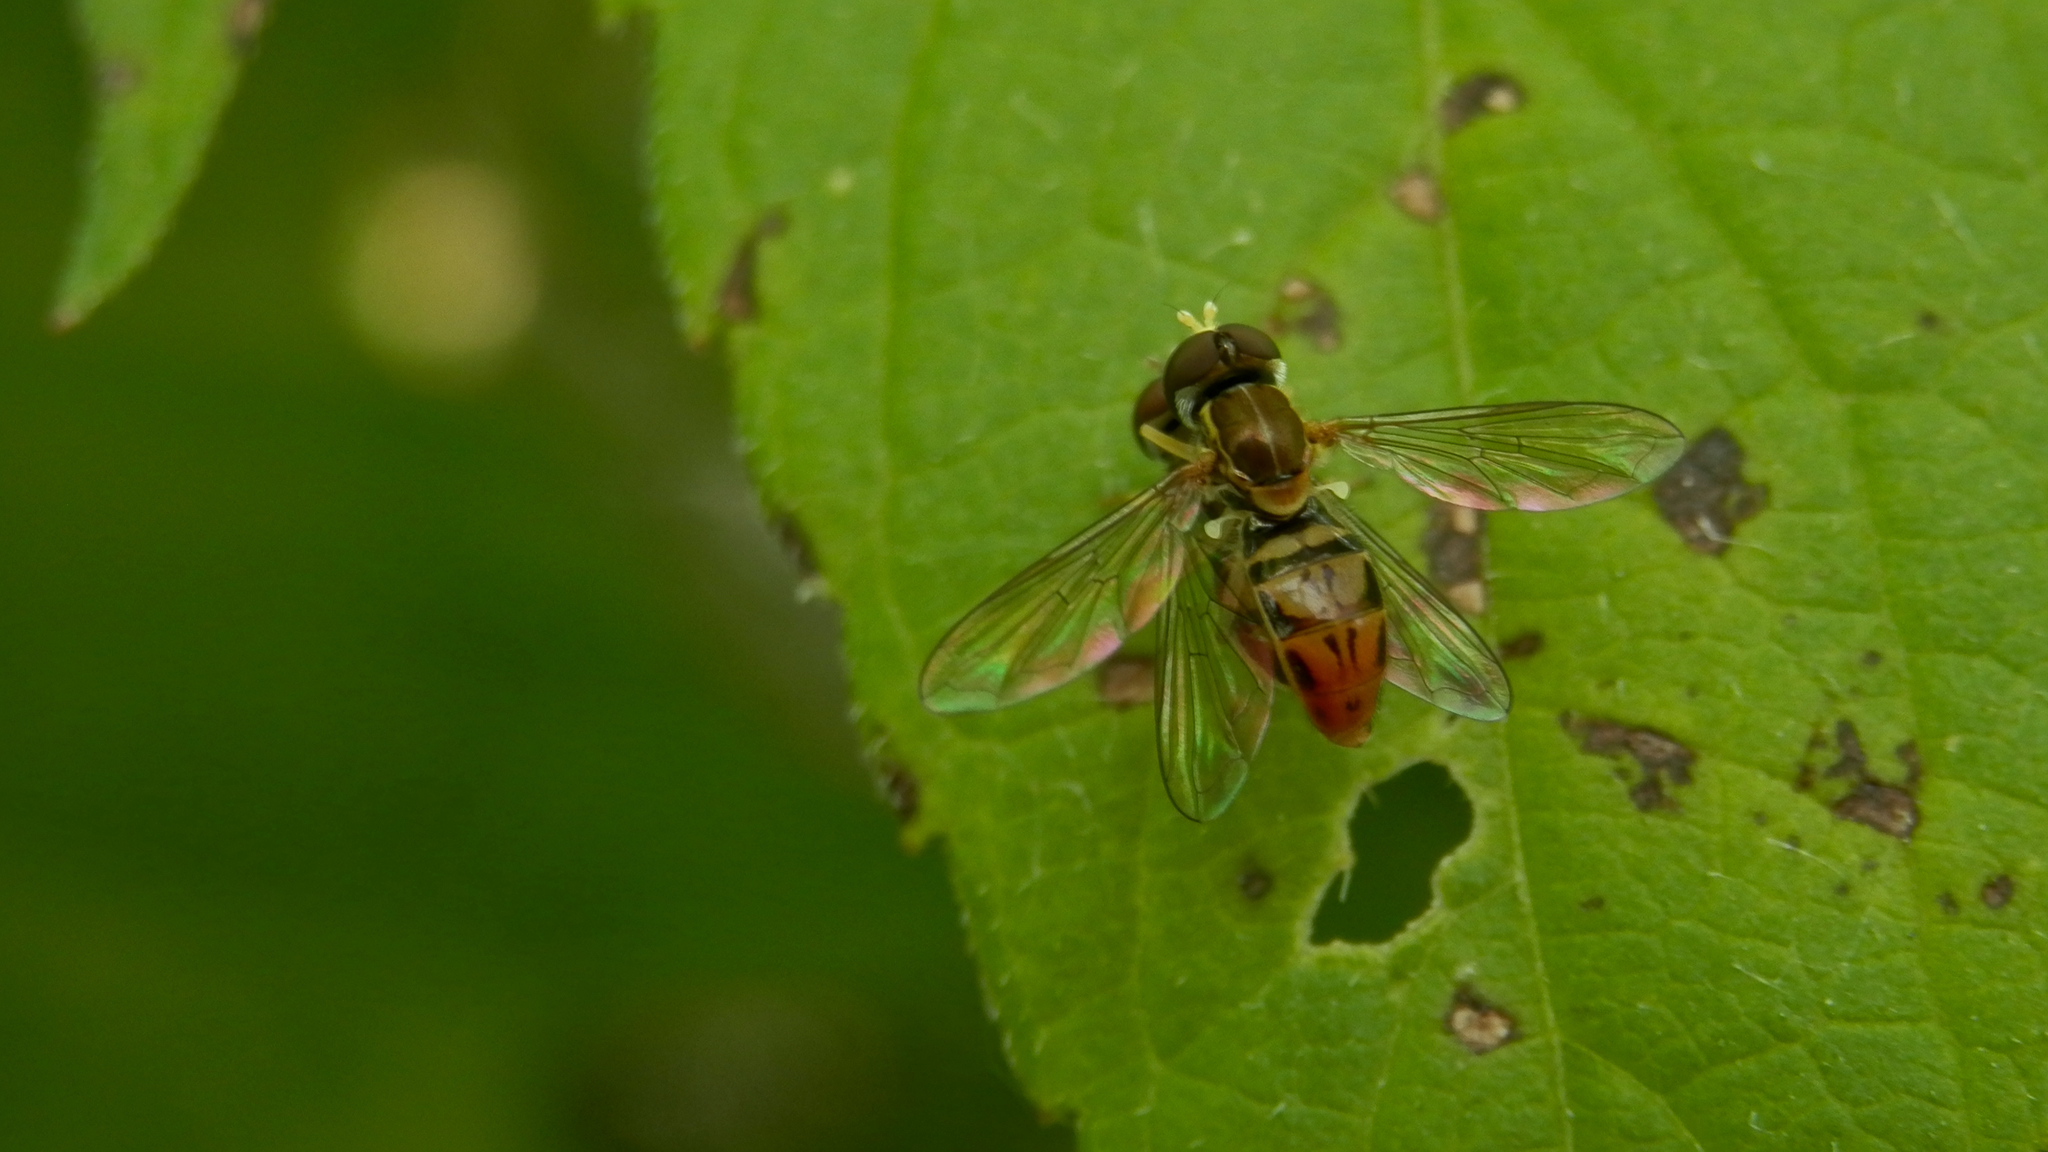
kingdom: Animalia
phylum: Arthropoda
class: Insecta
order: Diptera
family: Syrphidae
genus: Toxomerus
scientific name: Toxomerus marginatus
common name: Syrphid fly
